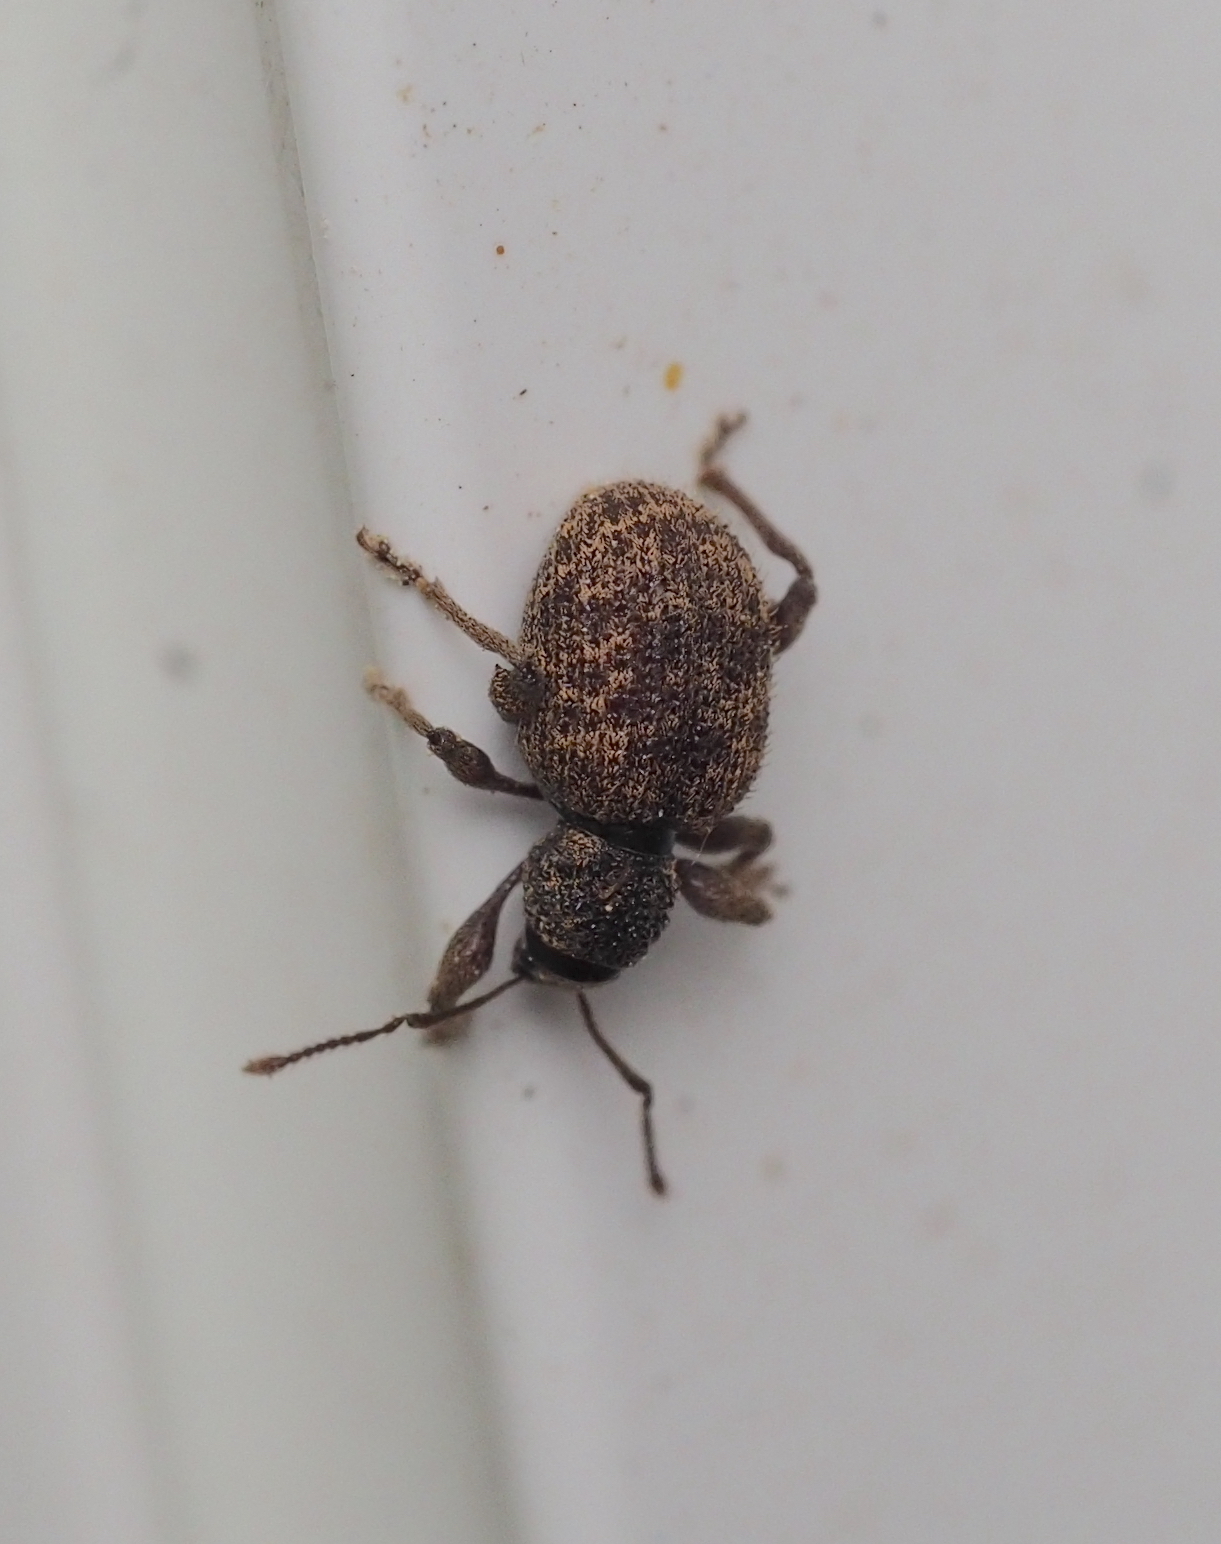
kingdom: Animalia
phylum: Arthropoda
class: Insecta
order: Coleoptera
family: Curculionidae
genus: Otiorhynchus
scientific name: Otiorhynchus crataegi
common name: Privet weevil
